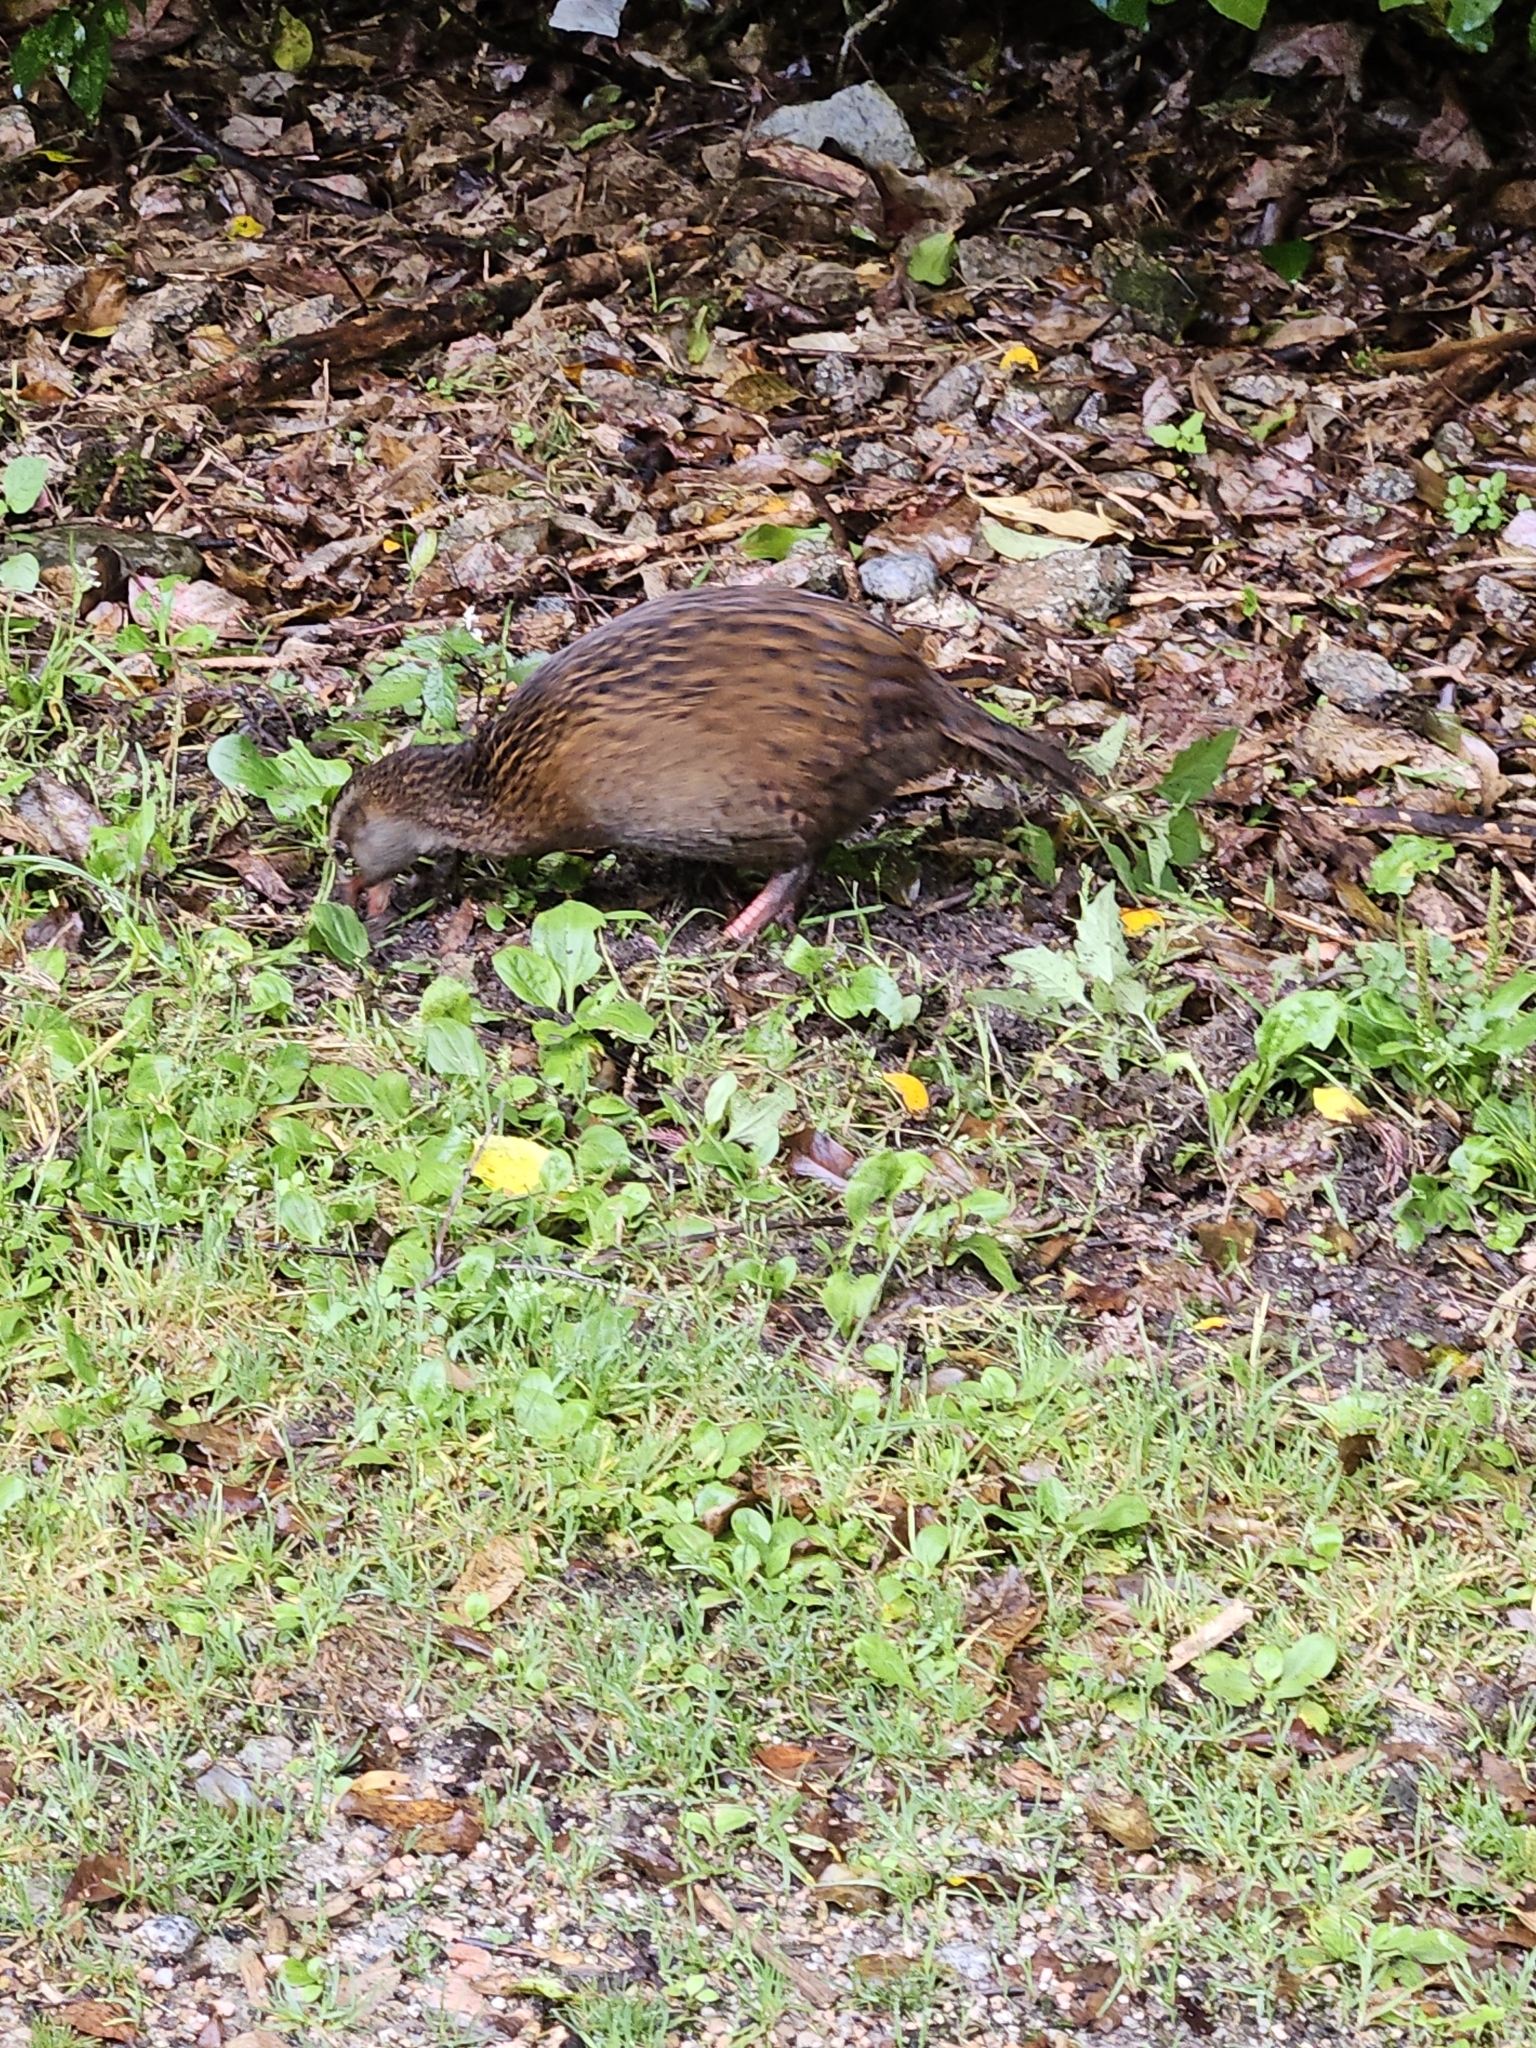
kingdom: Animalia
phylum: Chordata
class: Aves
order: Gruiformes
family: Rallidae
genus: Gallirallus
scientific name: Gallirallus australis
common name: Weka
